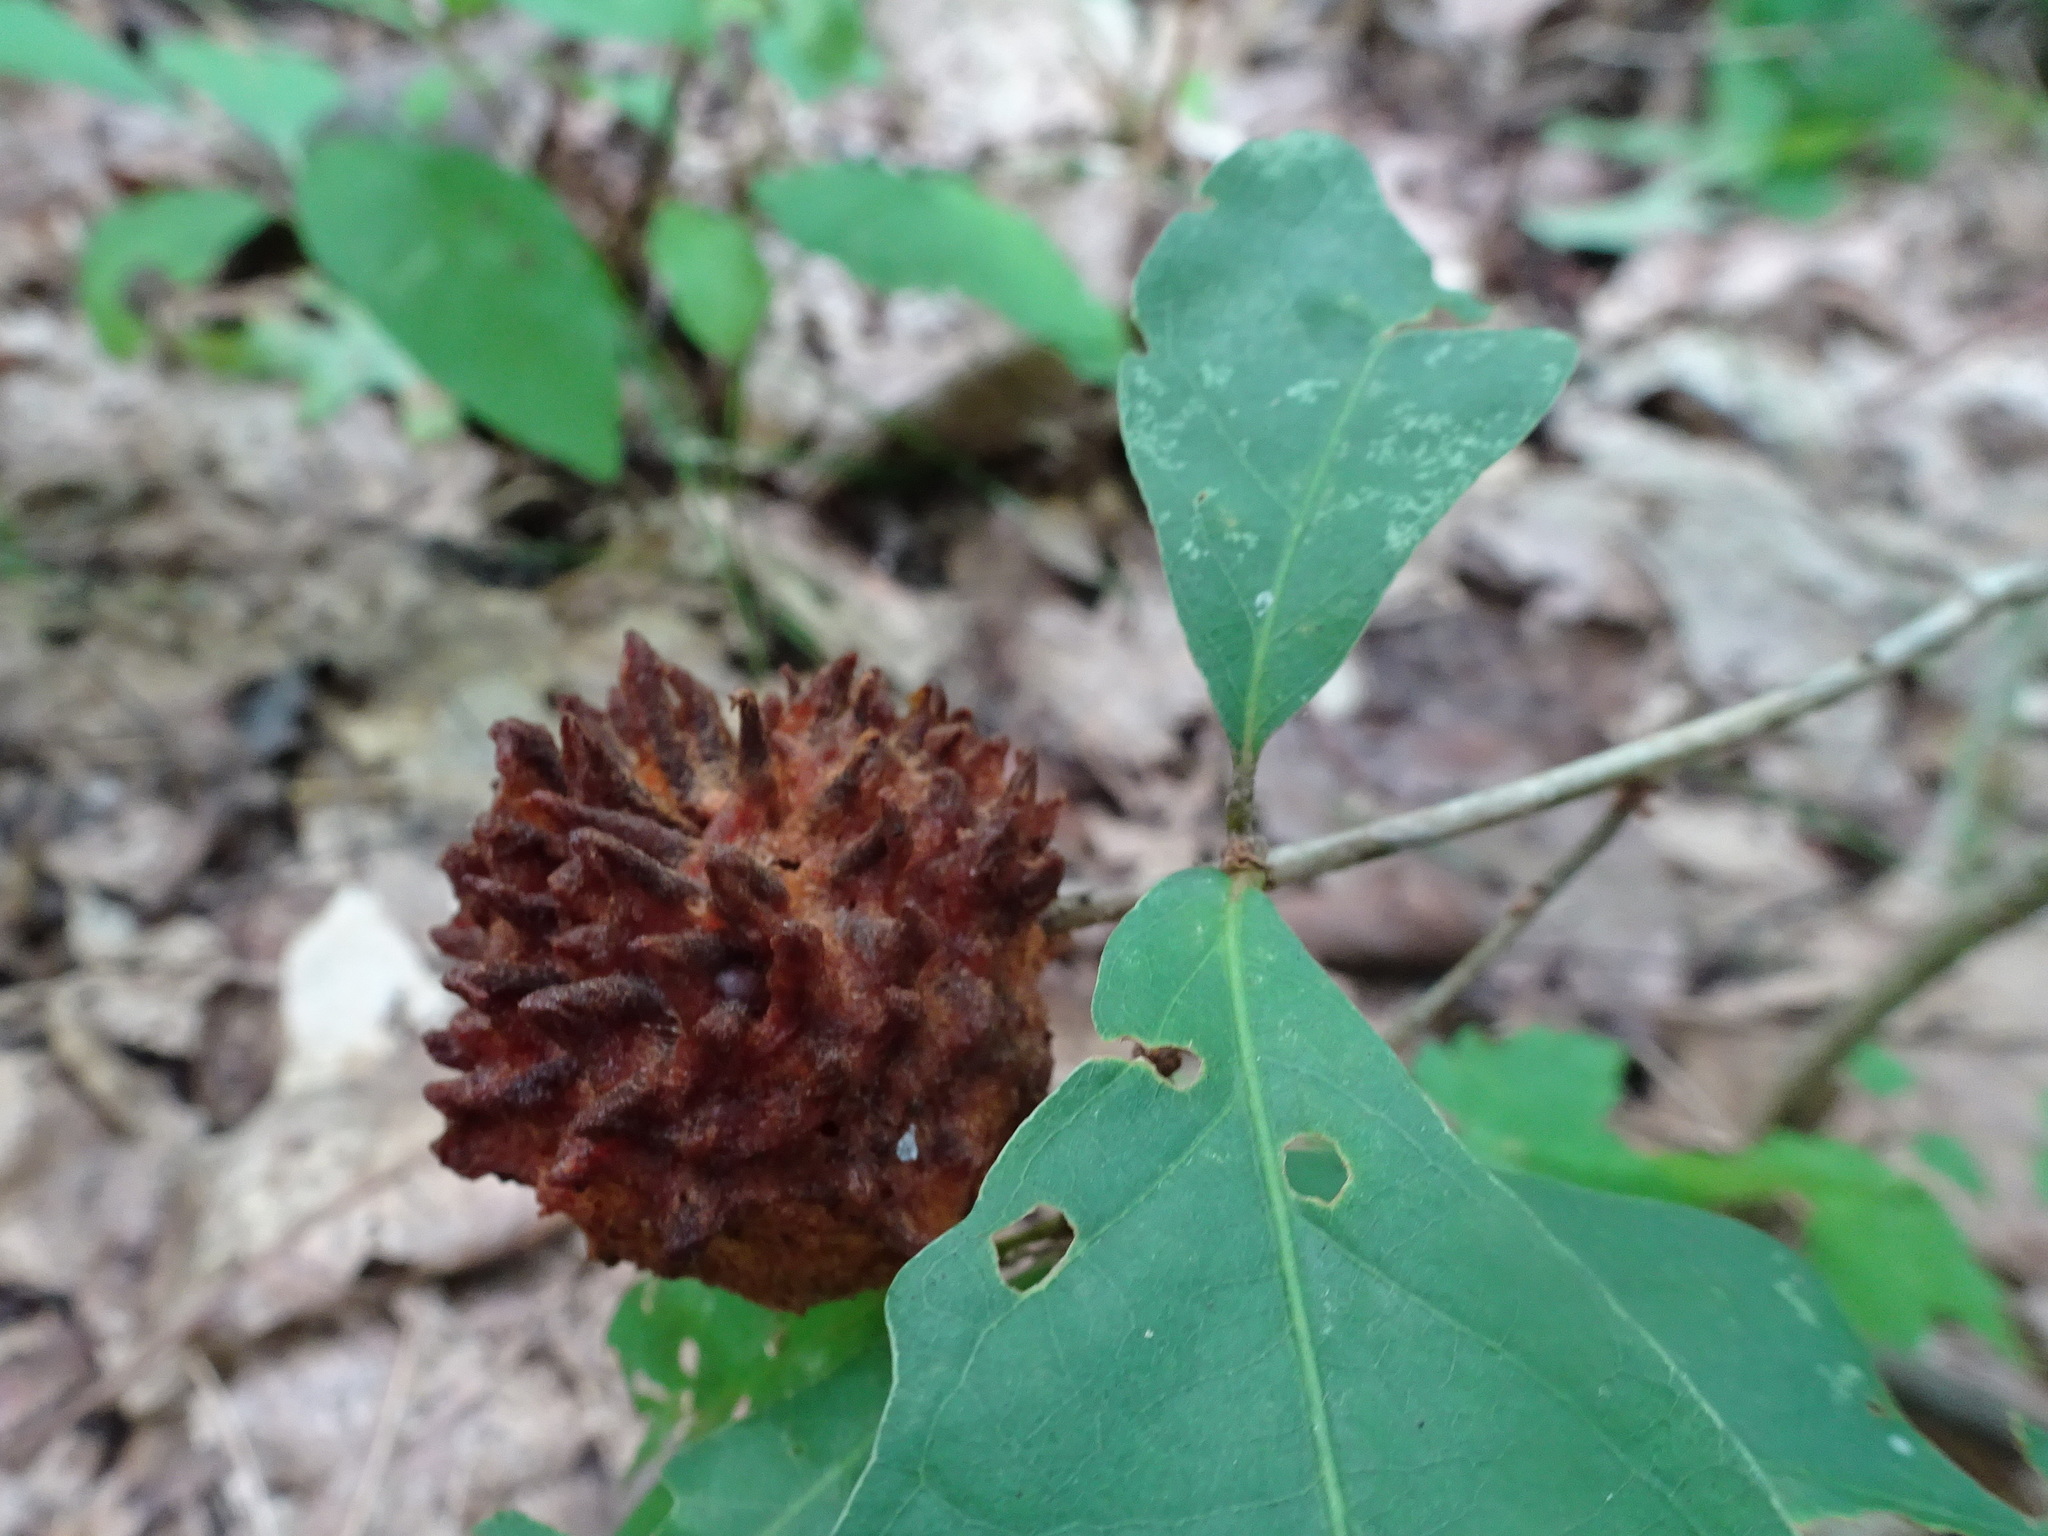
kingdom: Animalia
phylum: Arthropoda
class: Insecta
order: Hymenoptera
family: Cynipidae
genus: Callirhytis
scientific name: Callirhytis
